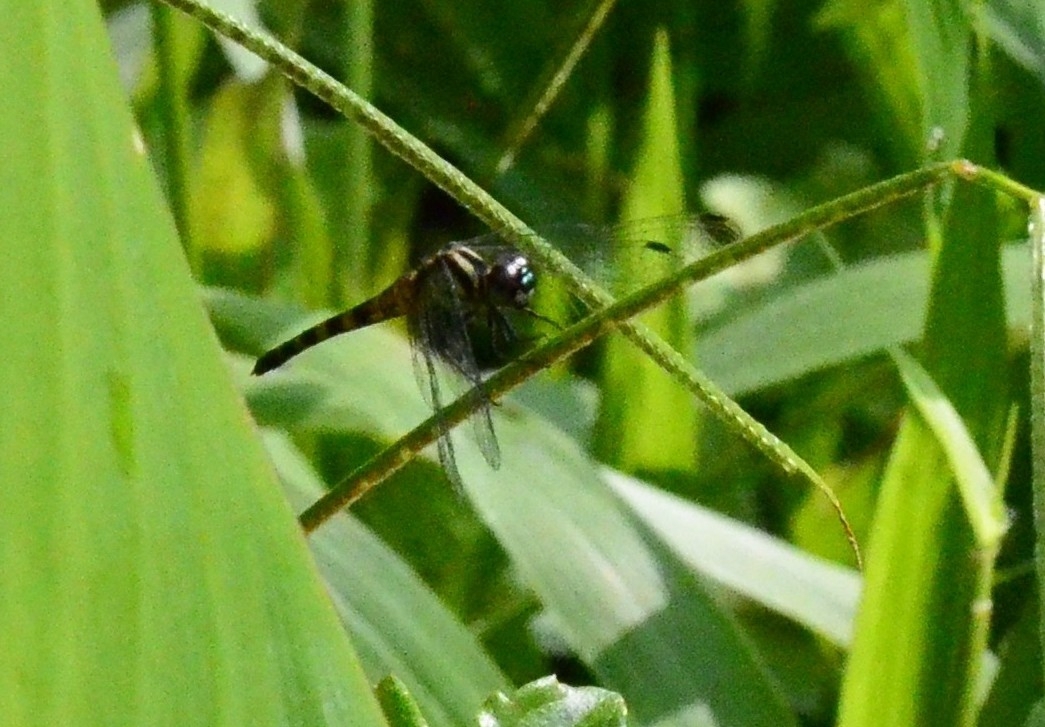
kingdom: Animalia
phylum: Arthropoda
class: Insecta
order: Odonata
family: Libellulidae
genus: Epithemis
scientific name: Epithemis mariae
